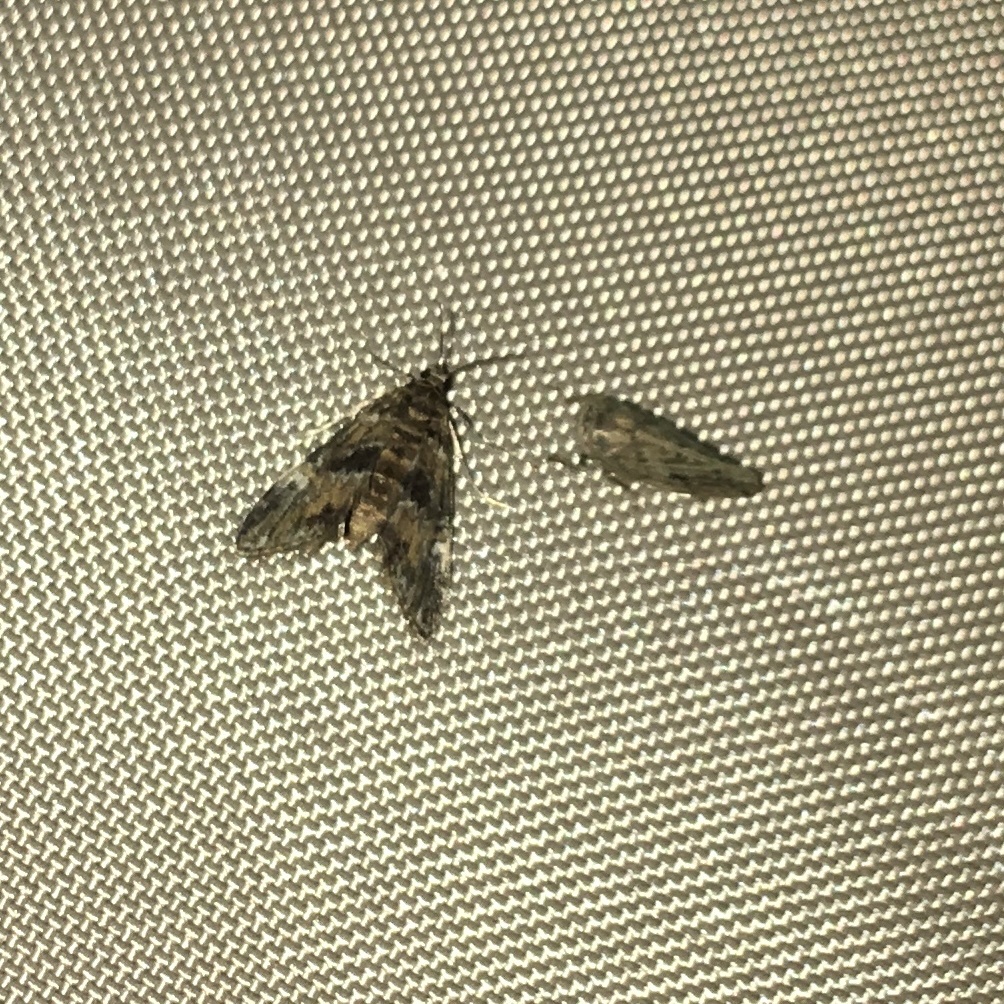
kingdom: Animalia
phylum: Arthropoda
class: Insecta
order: Lepidoptera
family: Crambidae
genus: Elophila
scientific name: Elophila obliteralis
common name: Waterlily leafcutter moth
